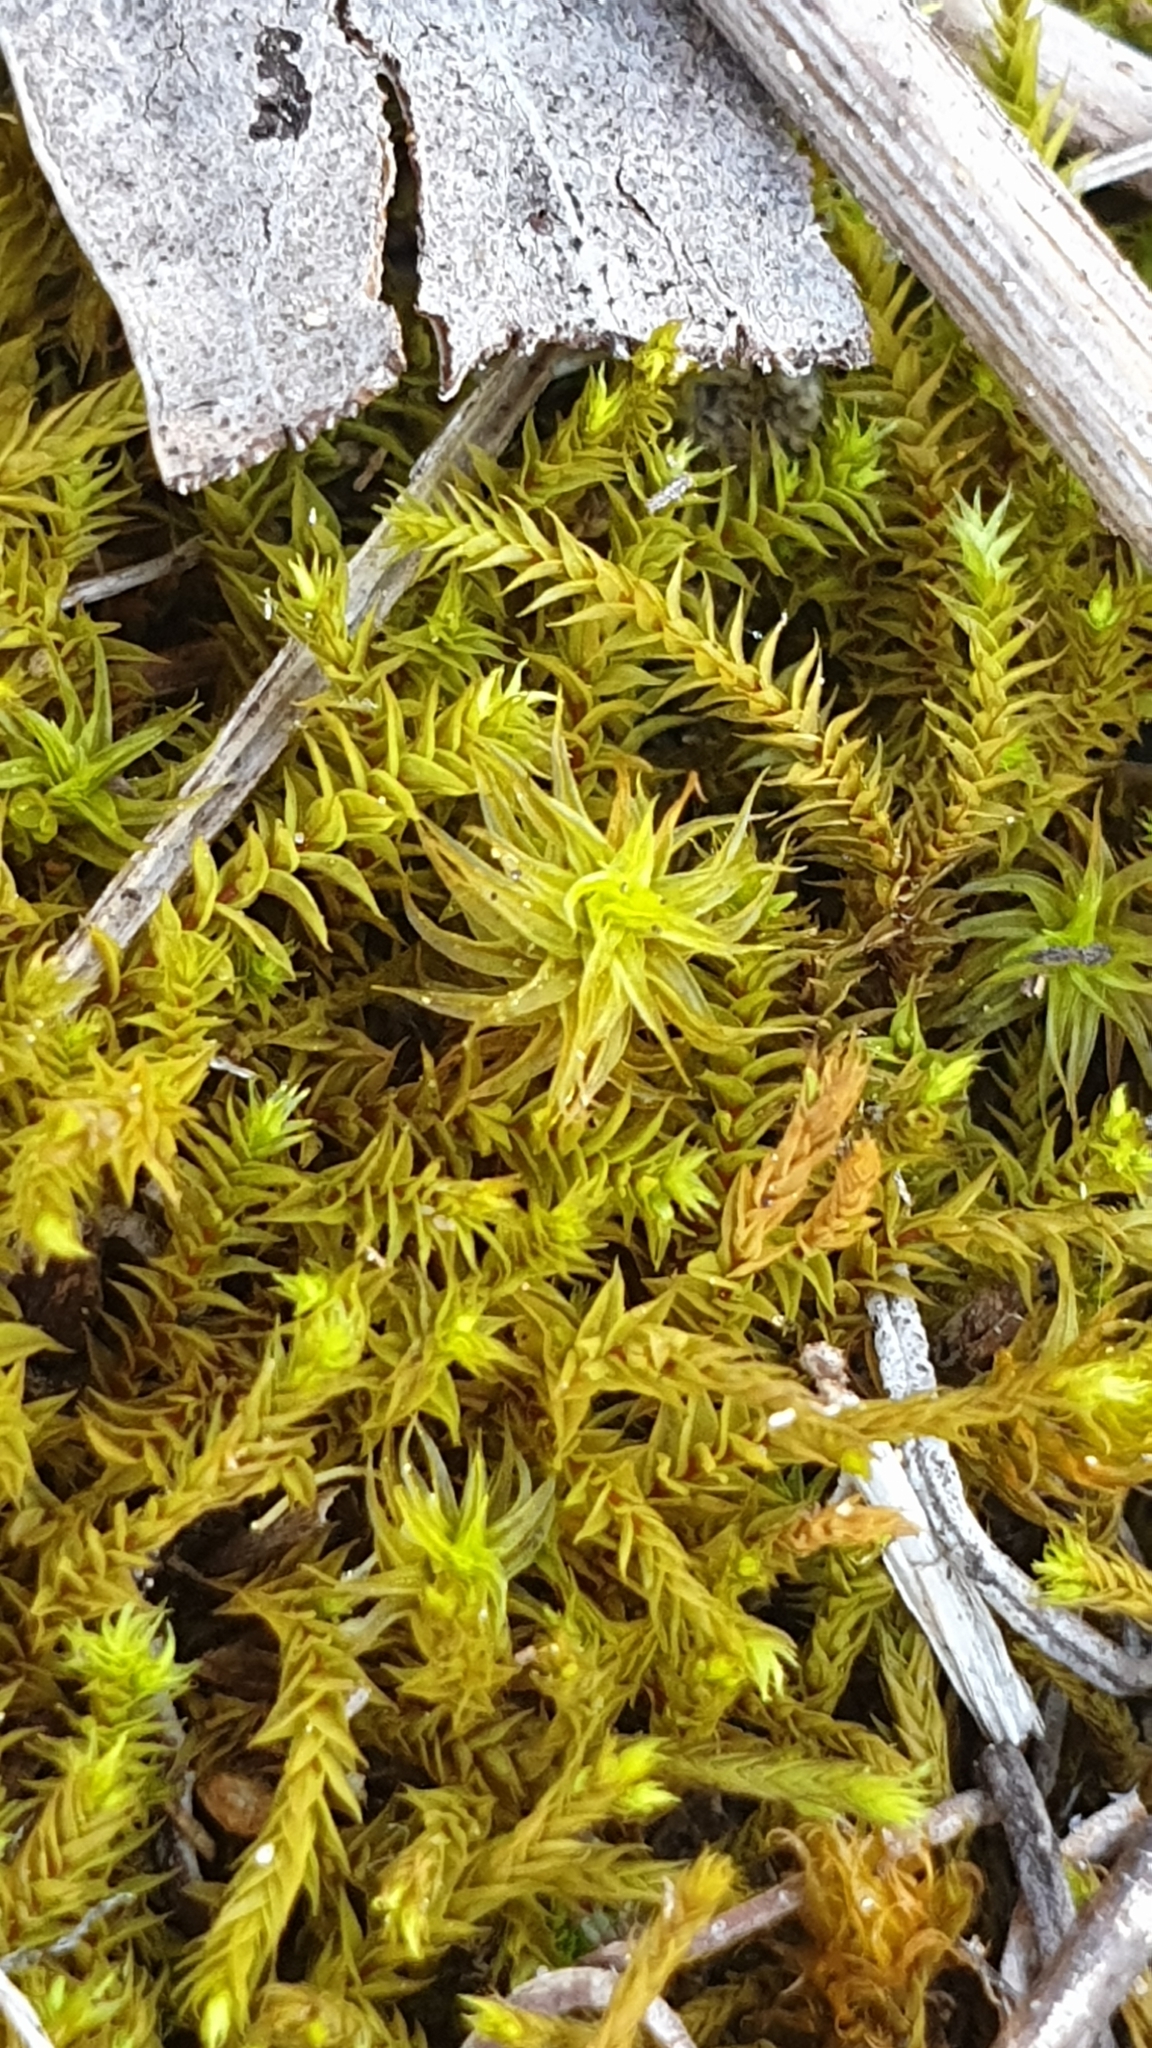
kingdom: Plantae
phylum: Bryophyta
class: Bryopsida
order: Pottiales
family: Pottiaceae
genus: Triquetrella
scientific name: Triquetrella papillata
